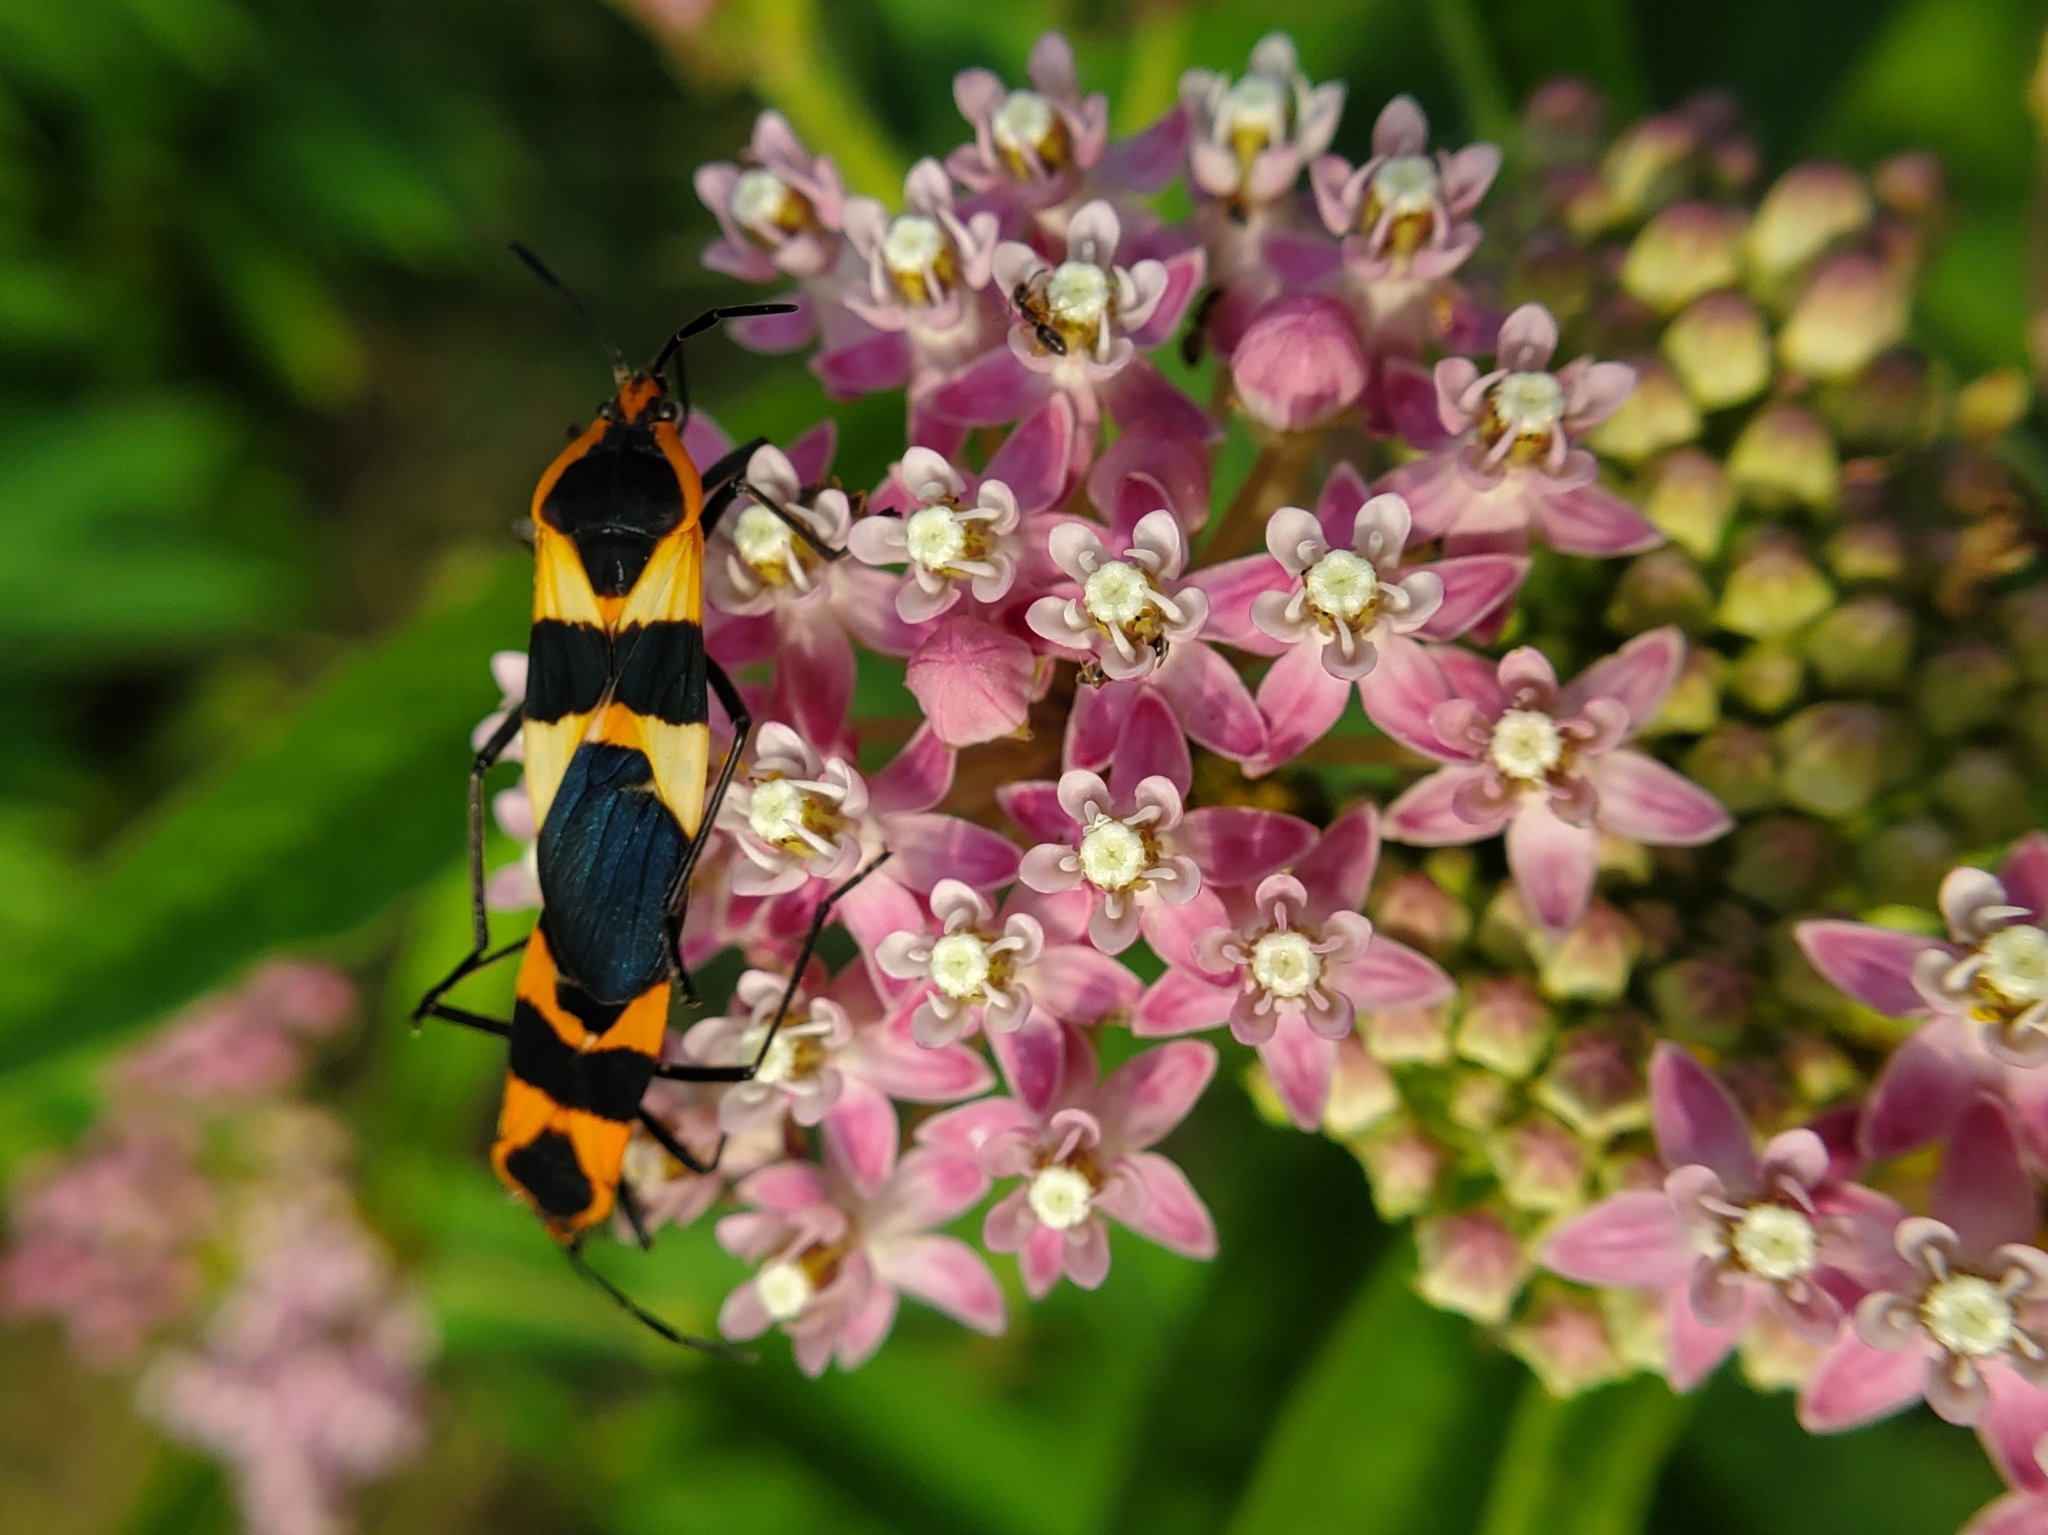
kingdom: Animalia
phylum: Arthropoda
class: Insecta
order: Hemiptera
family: Lygaeidae
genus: Oncopeltus
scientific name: Oncopeltus fasciatus
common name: Large milkweed bug
